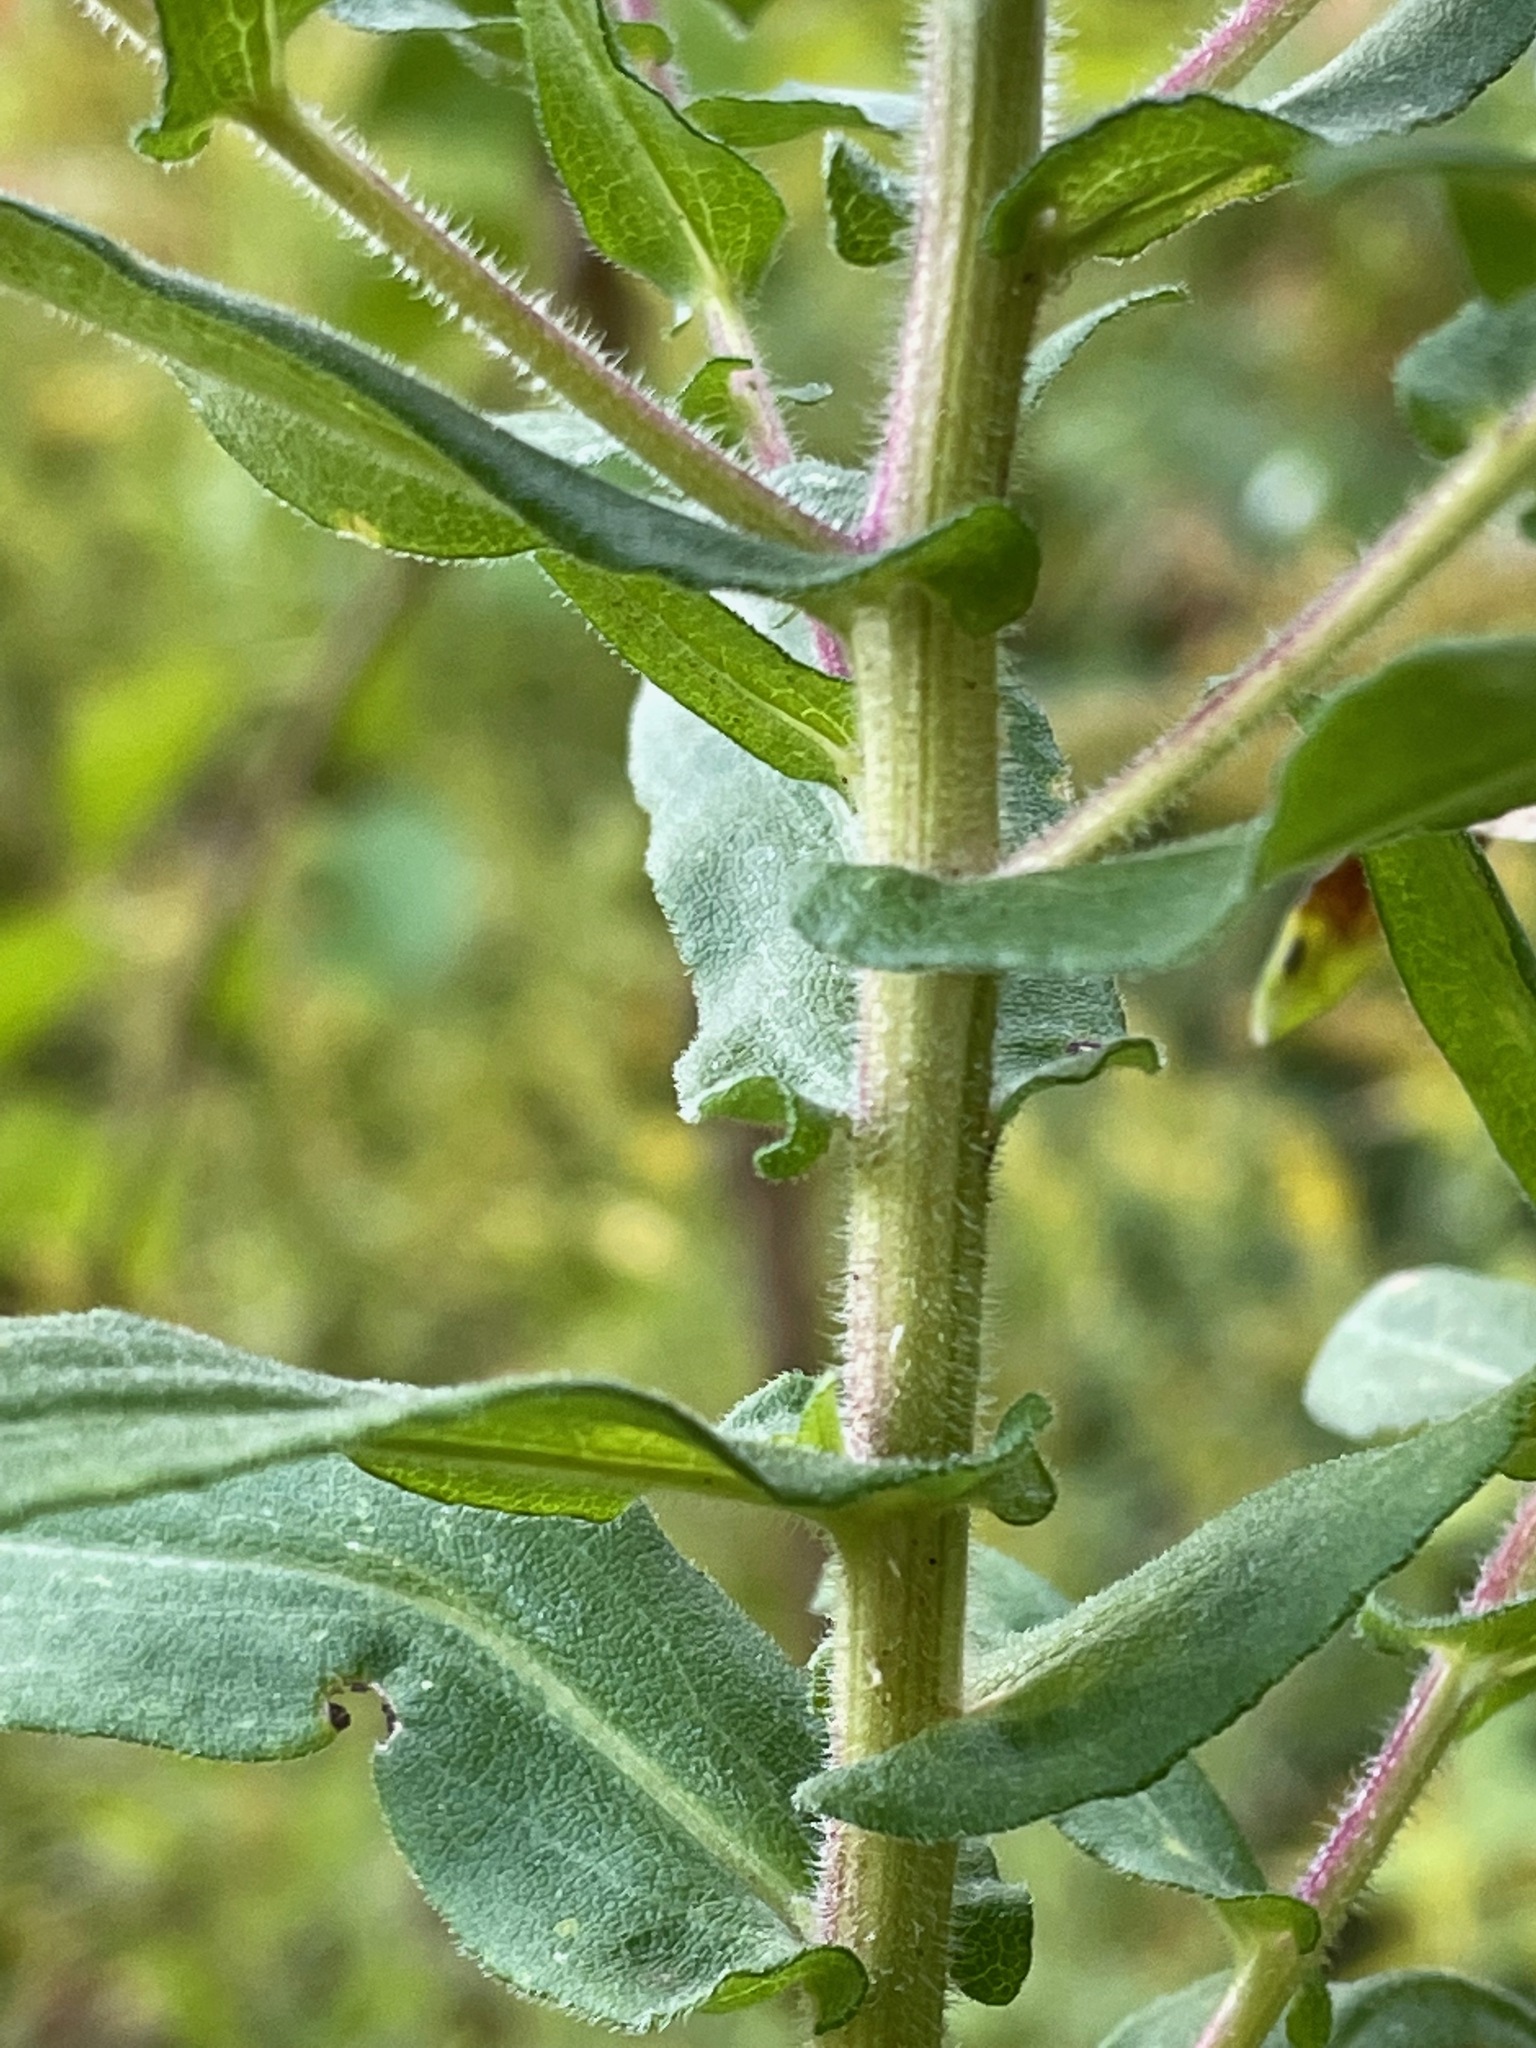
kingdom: Plantae
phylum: Tracheophyta
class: Magnoliopsida
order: Asterales
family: Asteraceae
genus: Symphyotrichum
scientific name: Symphyotrichum novae-angliae
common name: Michaelmas daisy
